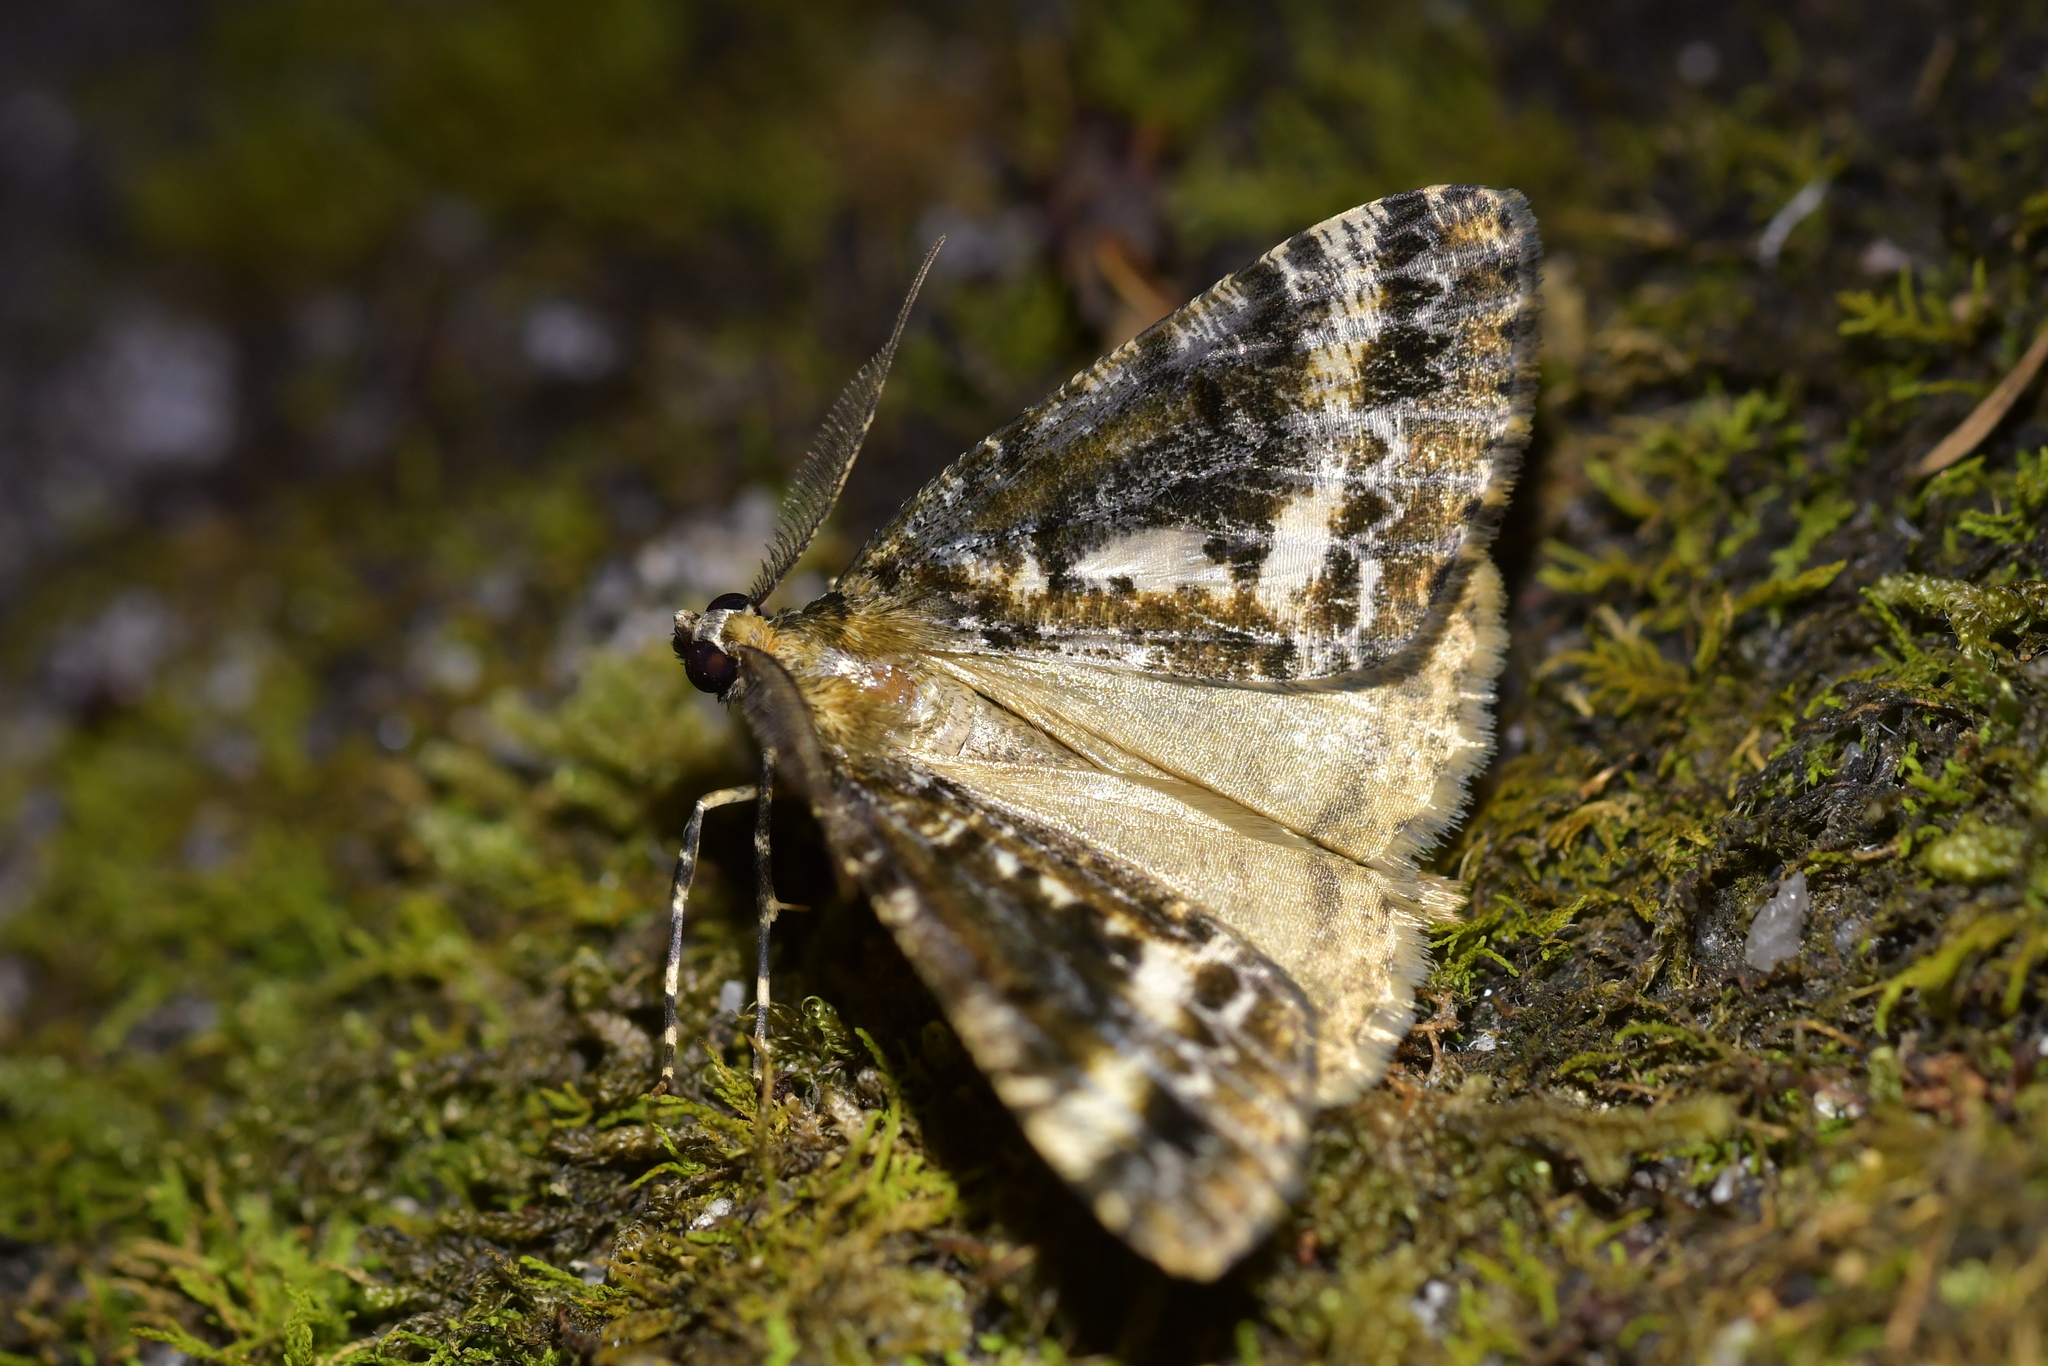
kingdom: Animalia
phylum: Arthropoda
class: Insecta
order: Lepidoptera
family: Geometridae
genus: Pseudocoremia
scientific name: Pseudocoremia leucelaea
